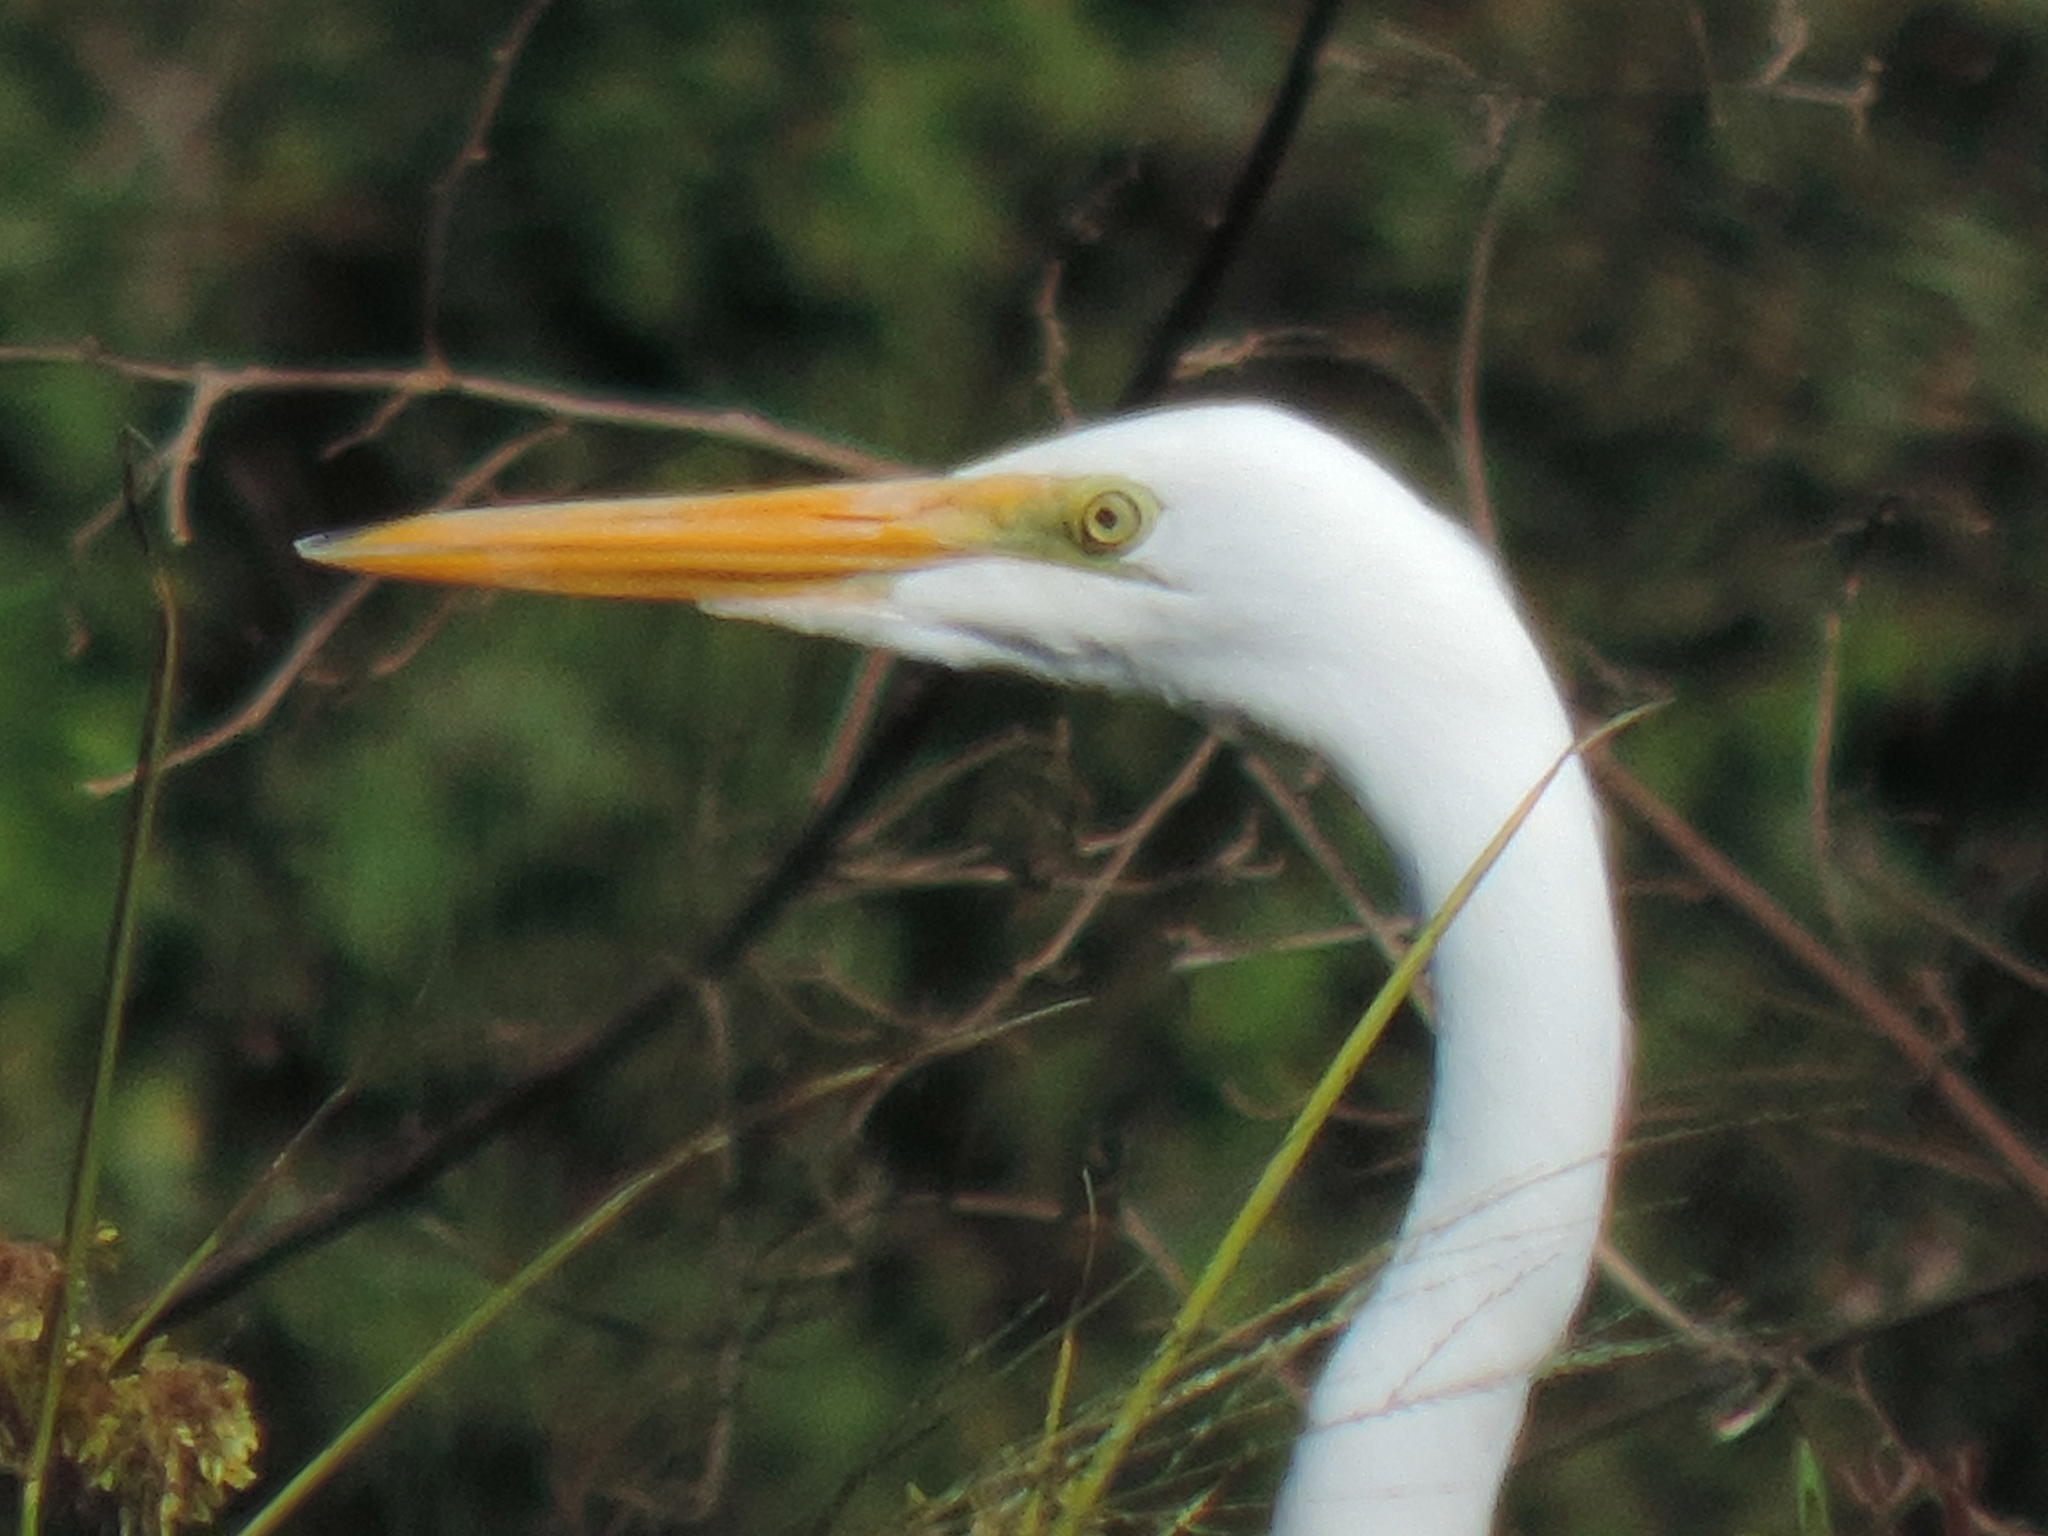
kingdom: Animalia
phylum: Chordata
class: Aves
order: Pelecaniformes
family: Ardeidae
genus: Ardea
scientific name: Ardea alba
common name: Great egret
